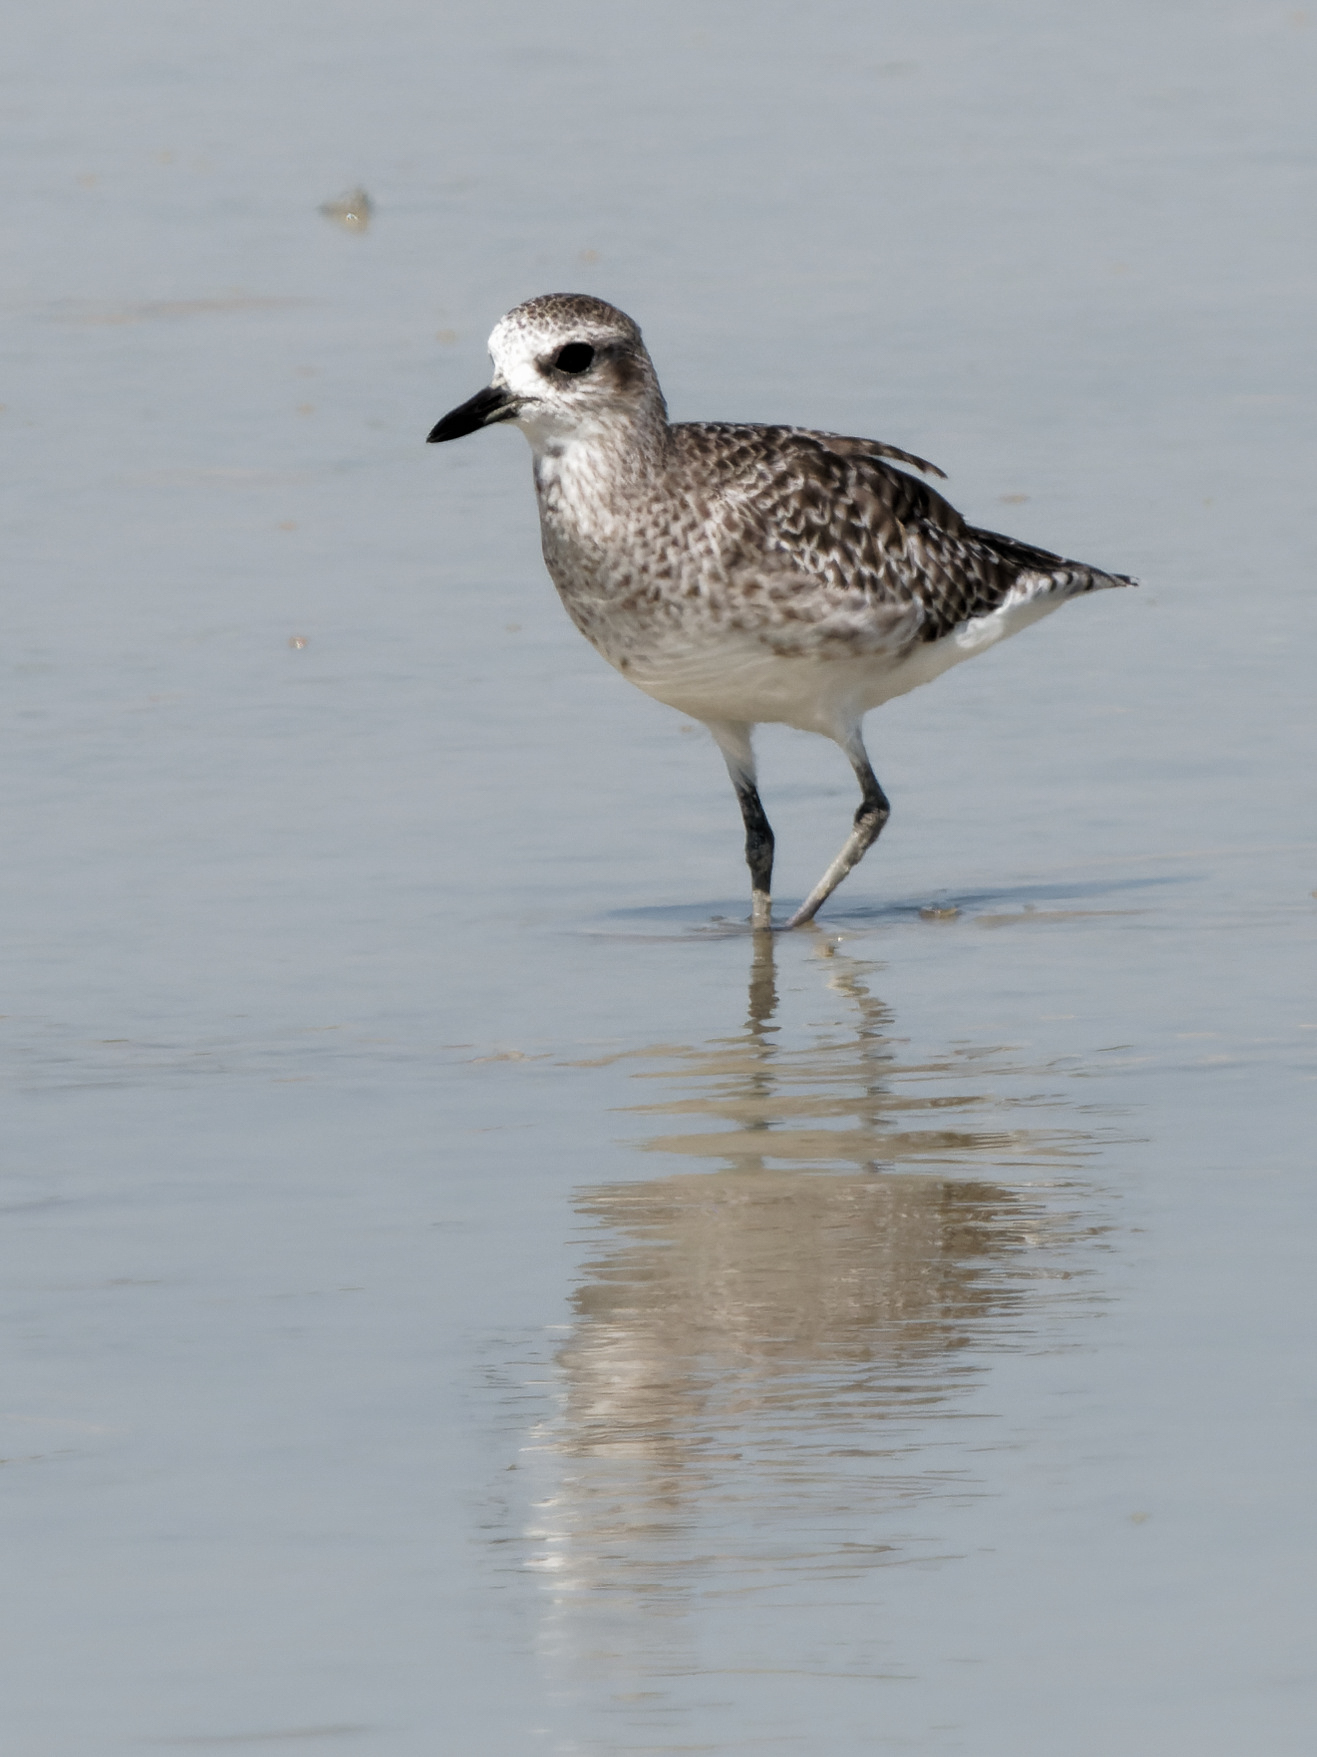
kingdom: Animalia
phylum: Chordata
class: Aves
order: Charadriiformes
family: Charadriidae
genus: Pluvialis
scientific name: Pluvialis squatarola
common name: Grey plover
